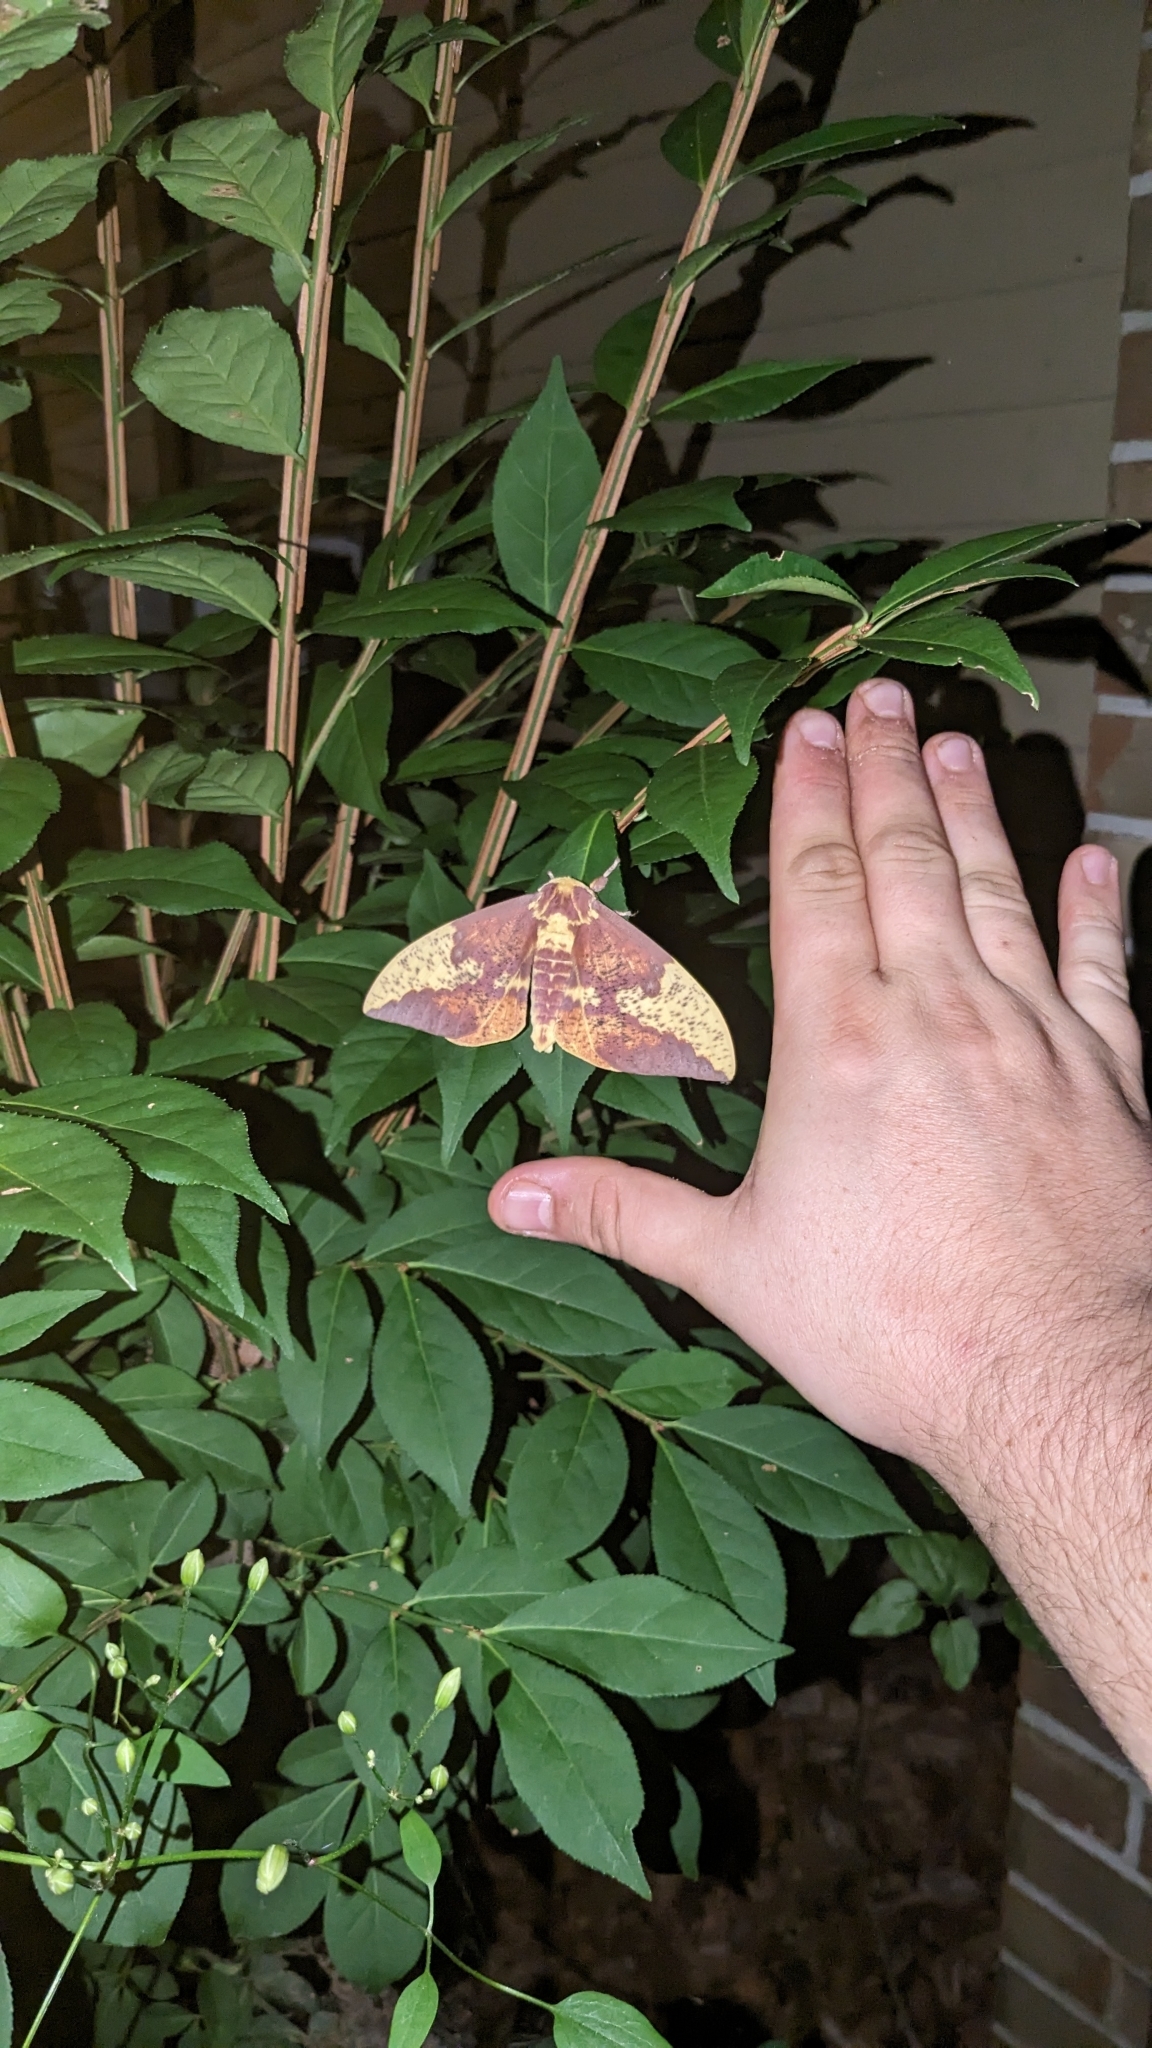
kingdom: Animalia
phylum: Arthropoda
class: Insecta
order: Lepidoptera
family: Saturniidae
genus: Eacles
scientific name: Eacles imperialis
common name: Imperial moth
